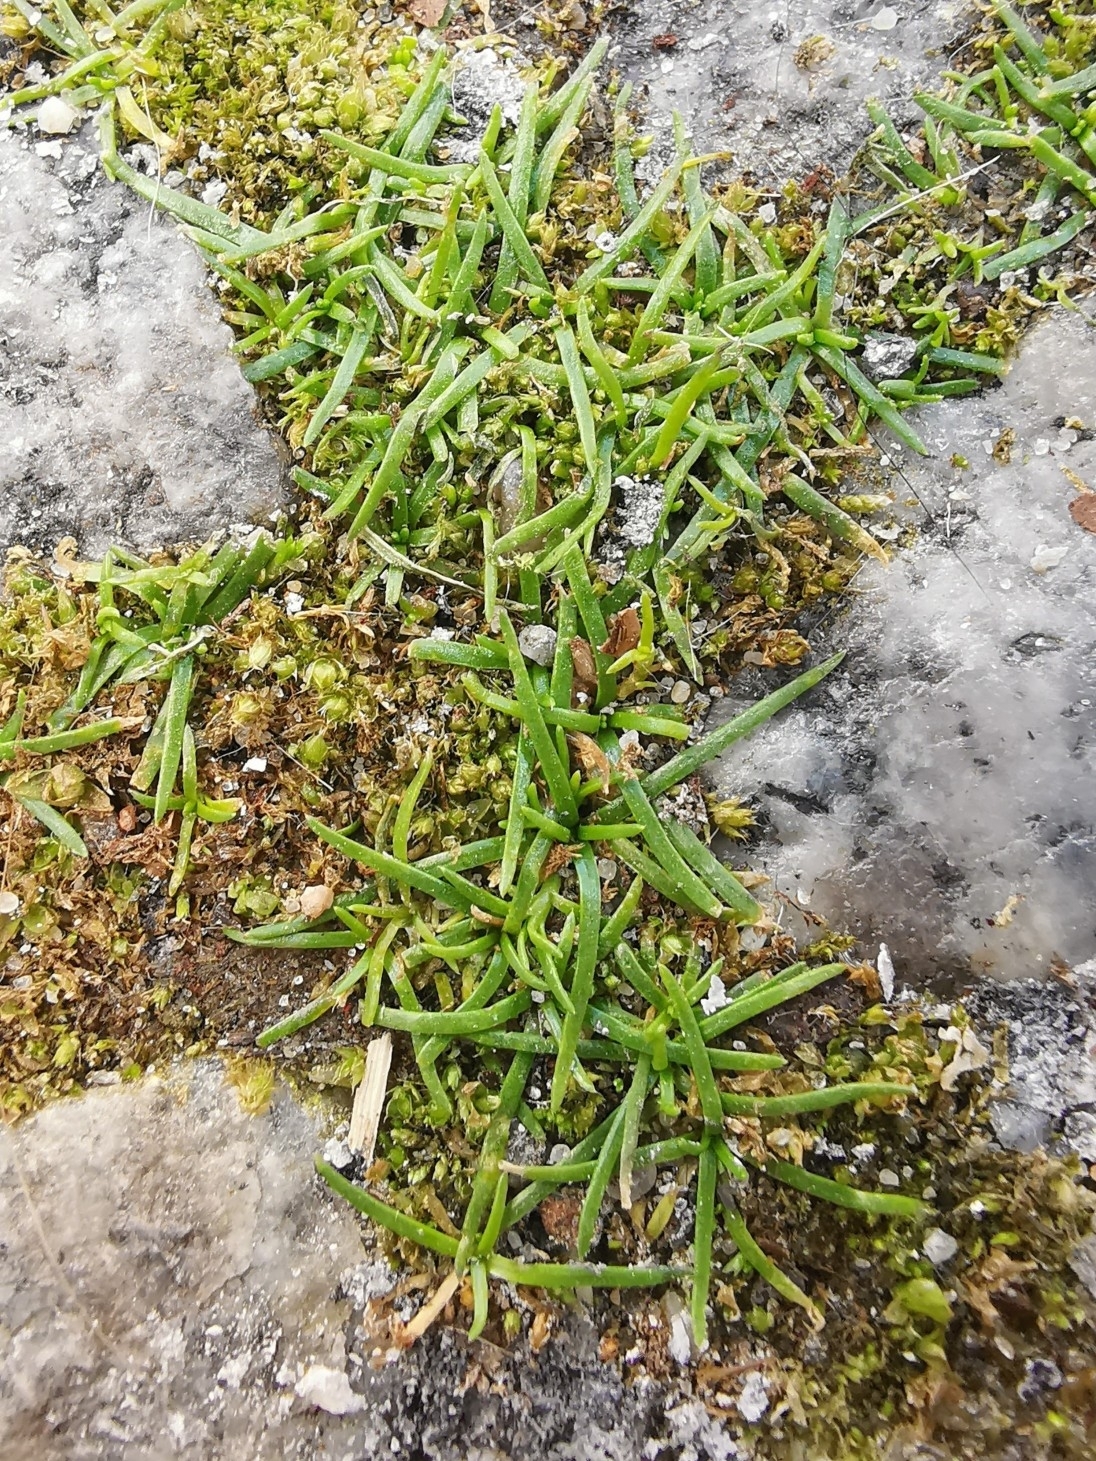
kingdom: Plantae
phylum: Tracheophyta
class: Magnoliopsida
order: Caryophyllales
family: Caryophyllaceae
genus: Sagina
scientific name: Sagina procumbens
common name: Procumbent pearlwort
